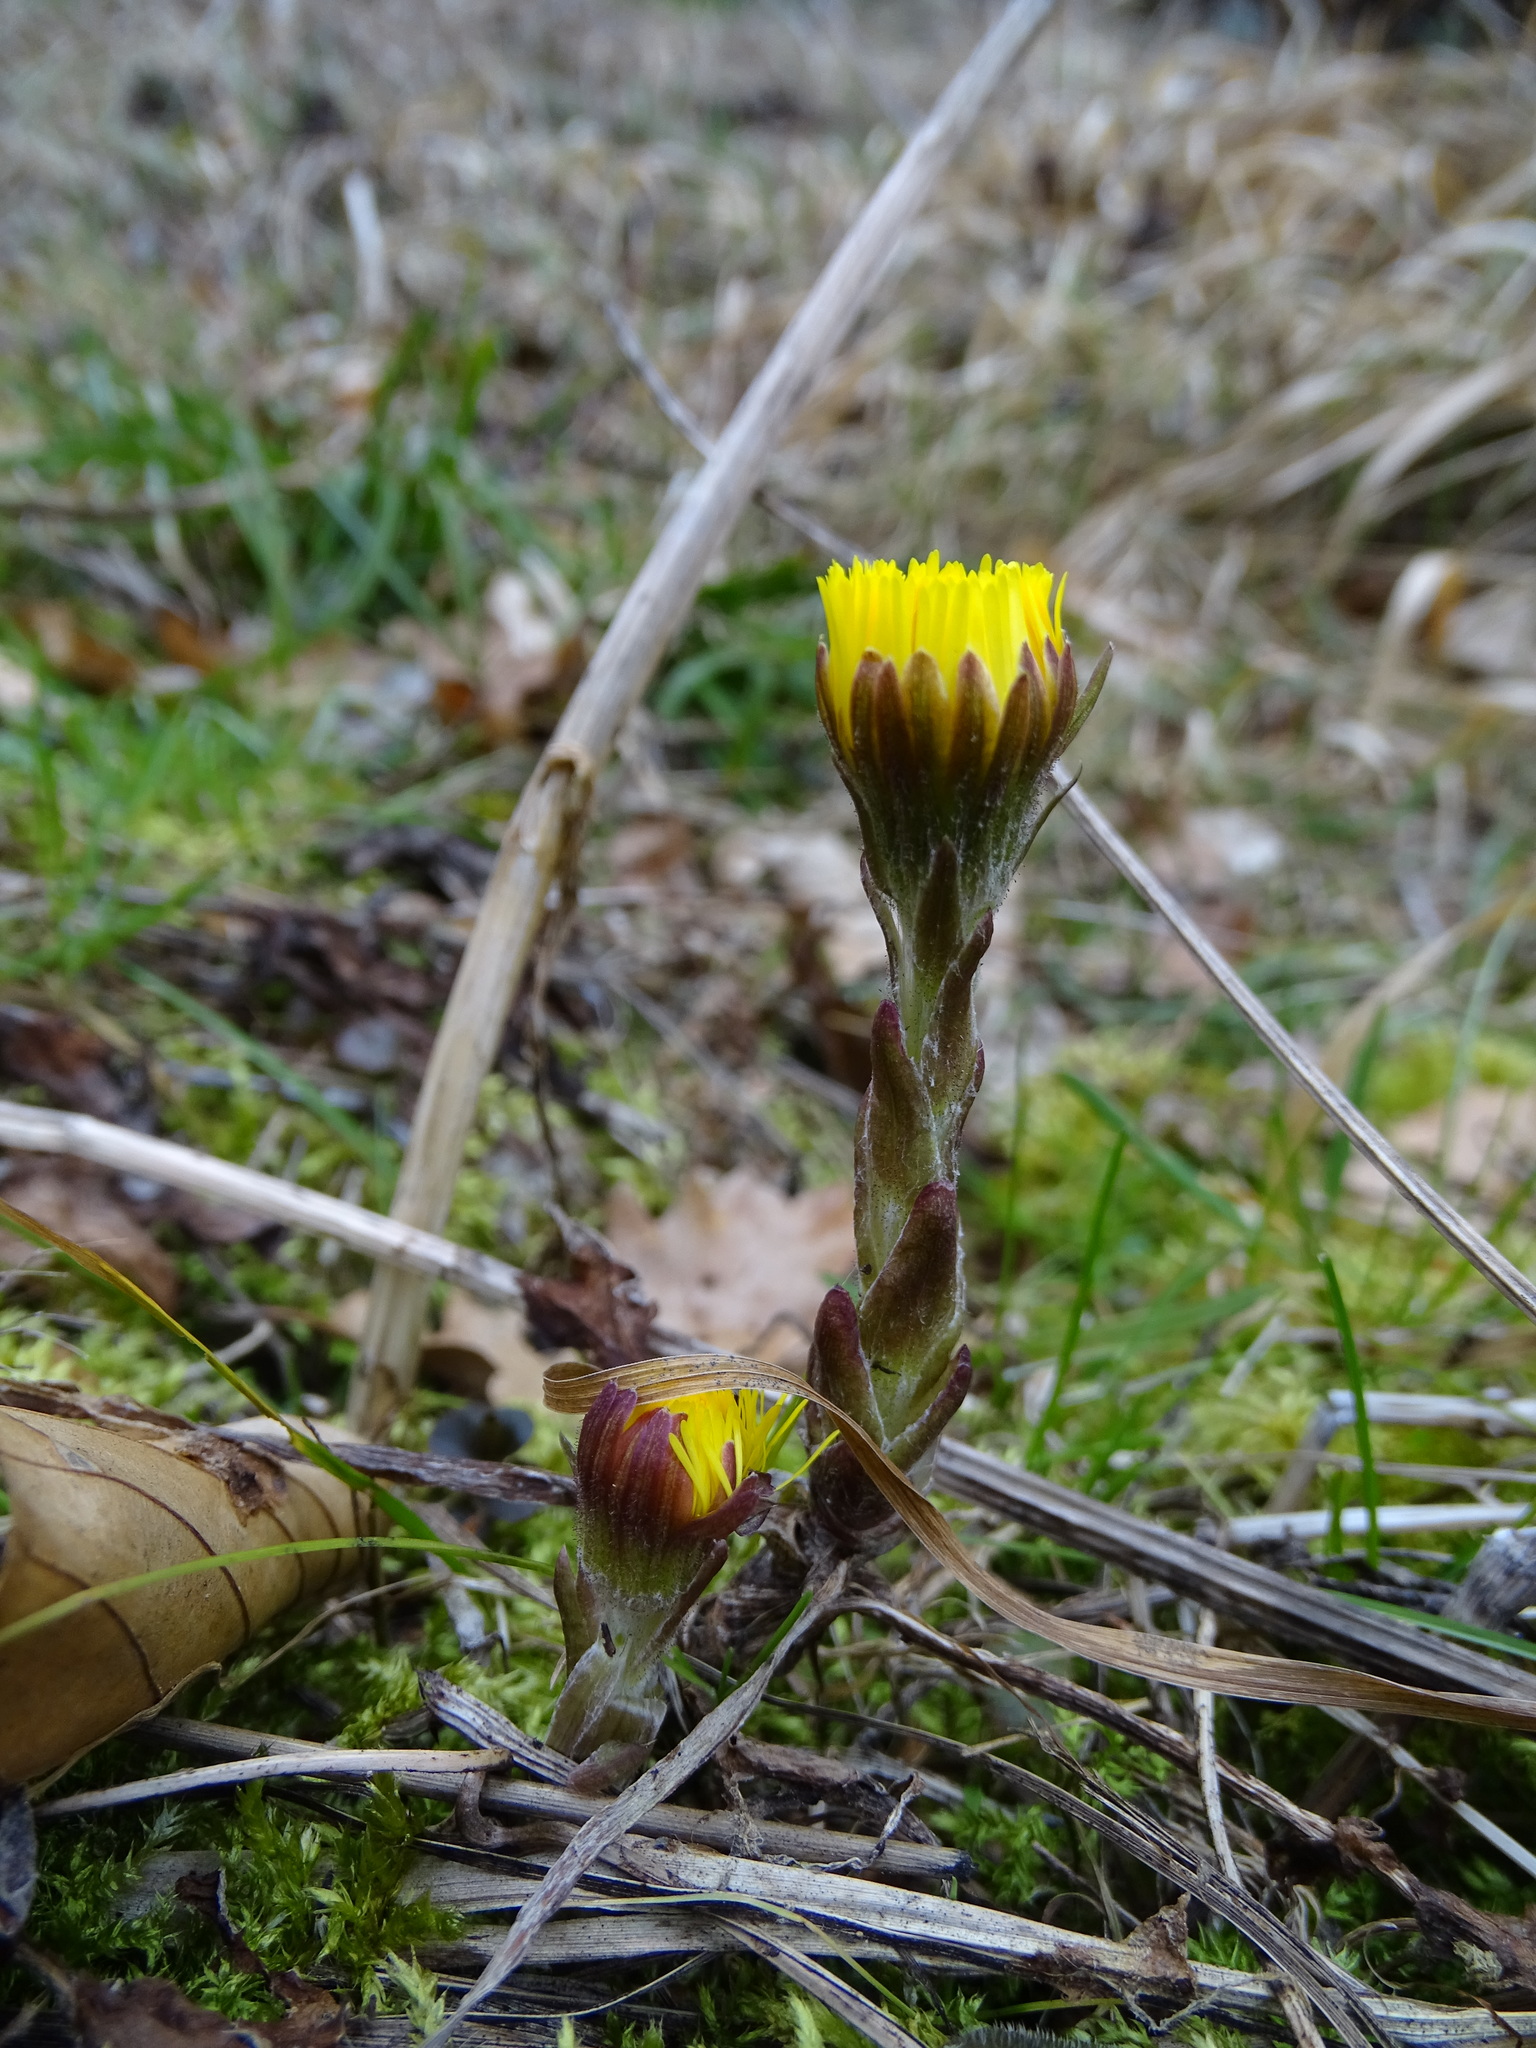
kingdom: Plantae
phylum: Tracheophyta
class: Magnoliopsida
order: Asterales
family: Asteraceae
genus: Tussilago
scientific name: Tussilago farfara
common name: Coltsfoot
